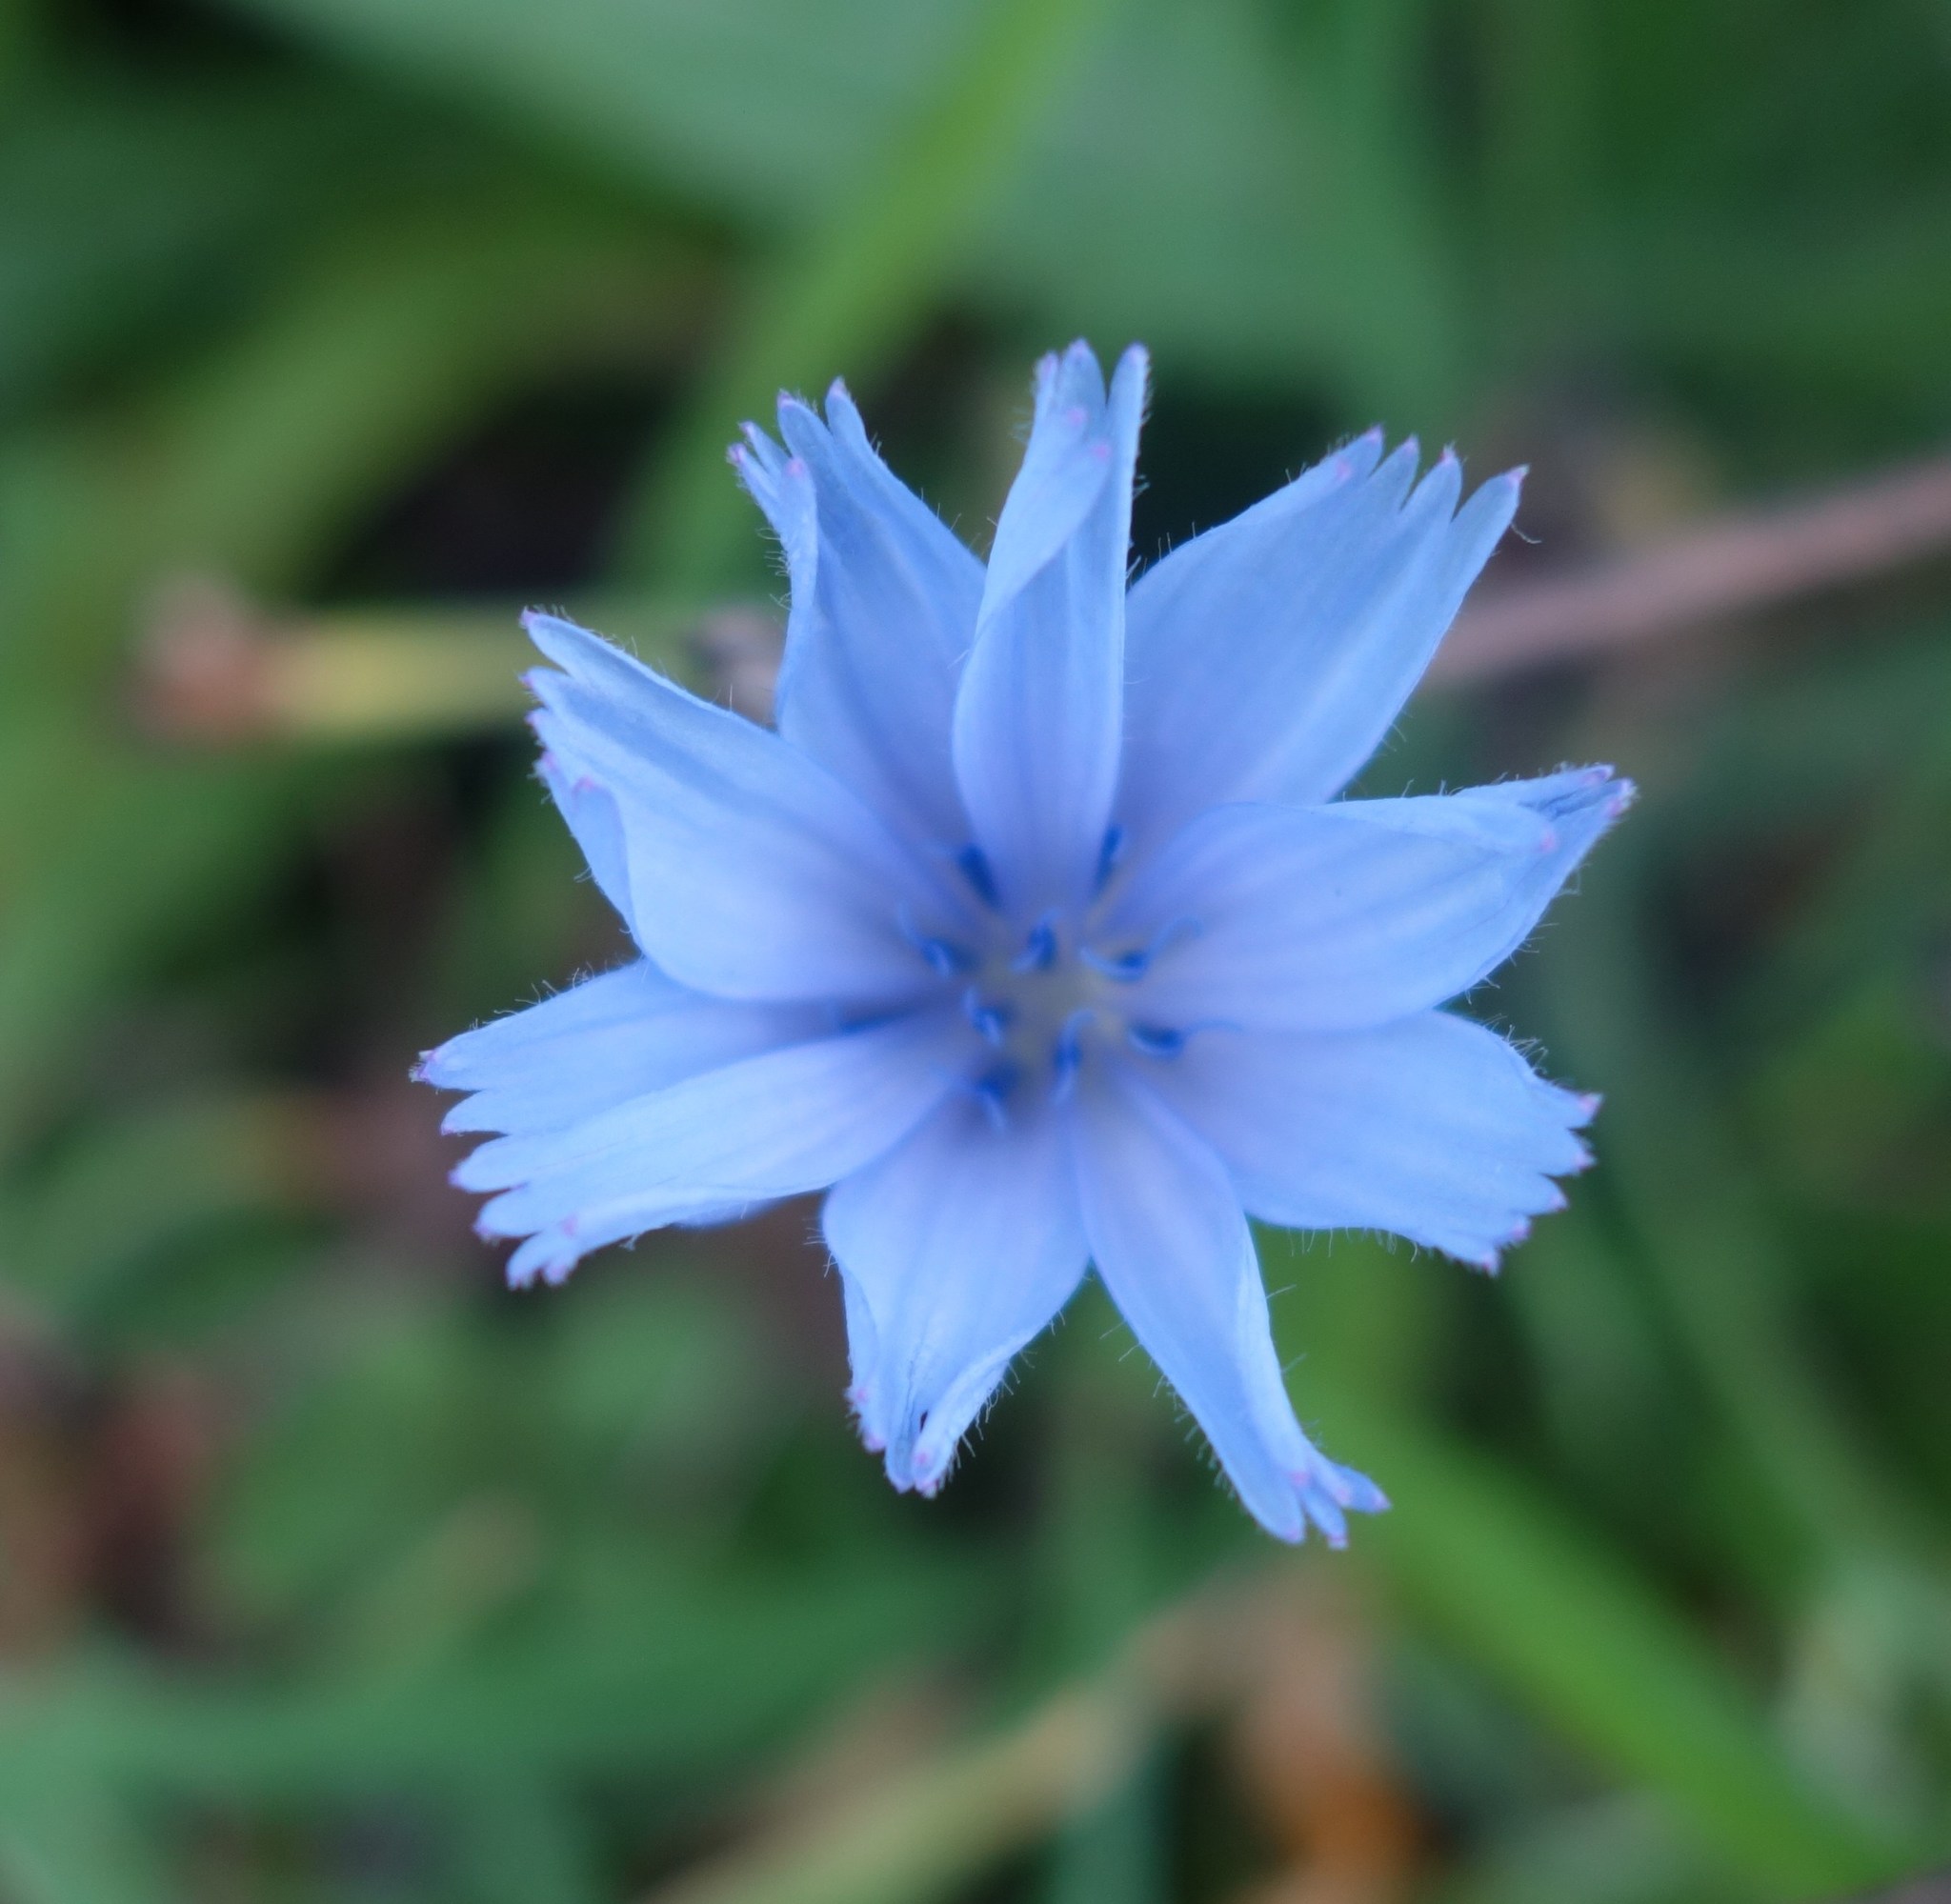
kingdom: Plantae
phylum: Tracheophyta
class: Magnoliopsida
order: Asterales
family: Asteraceae
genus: Cichorium
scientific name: Cichorium intybus
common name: Chicory
